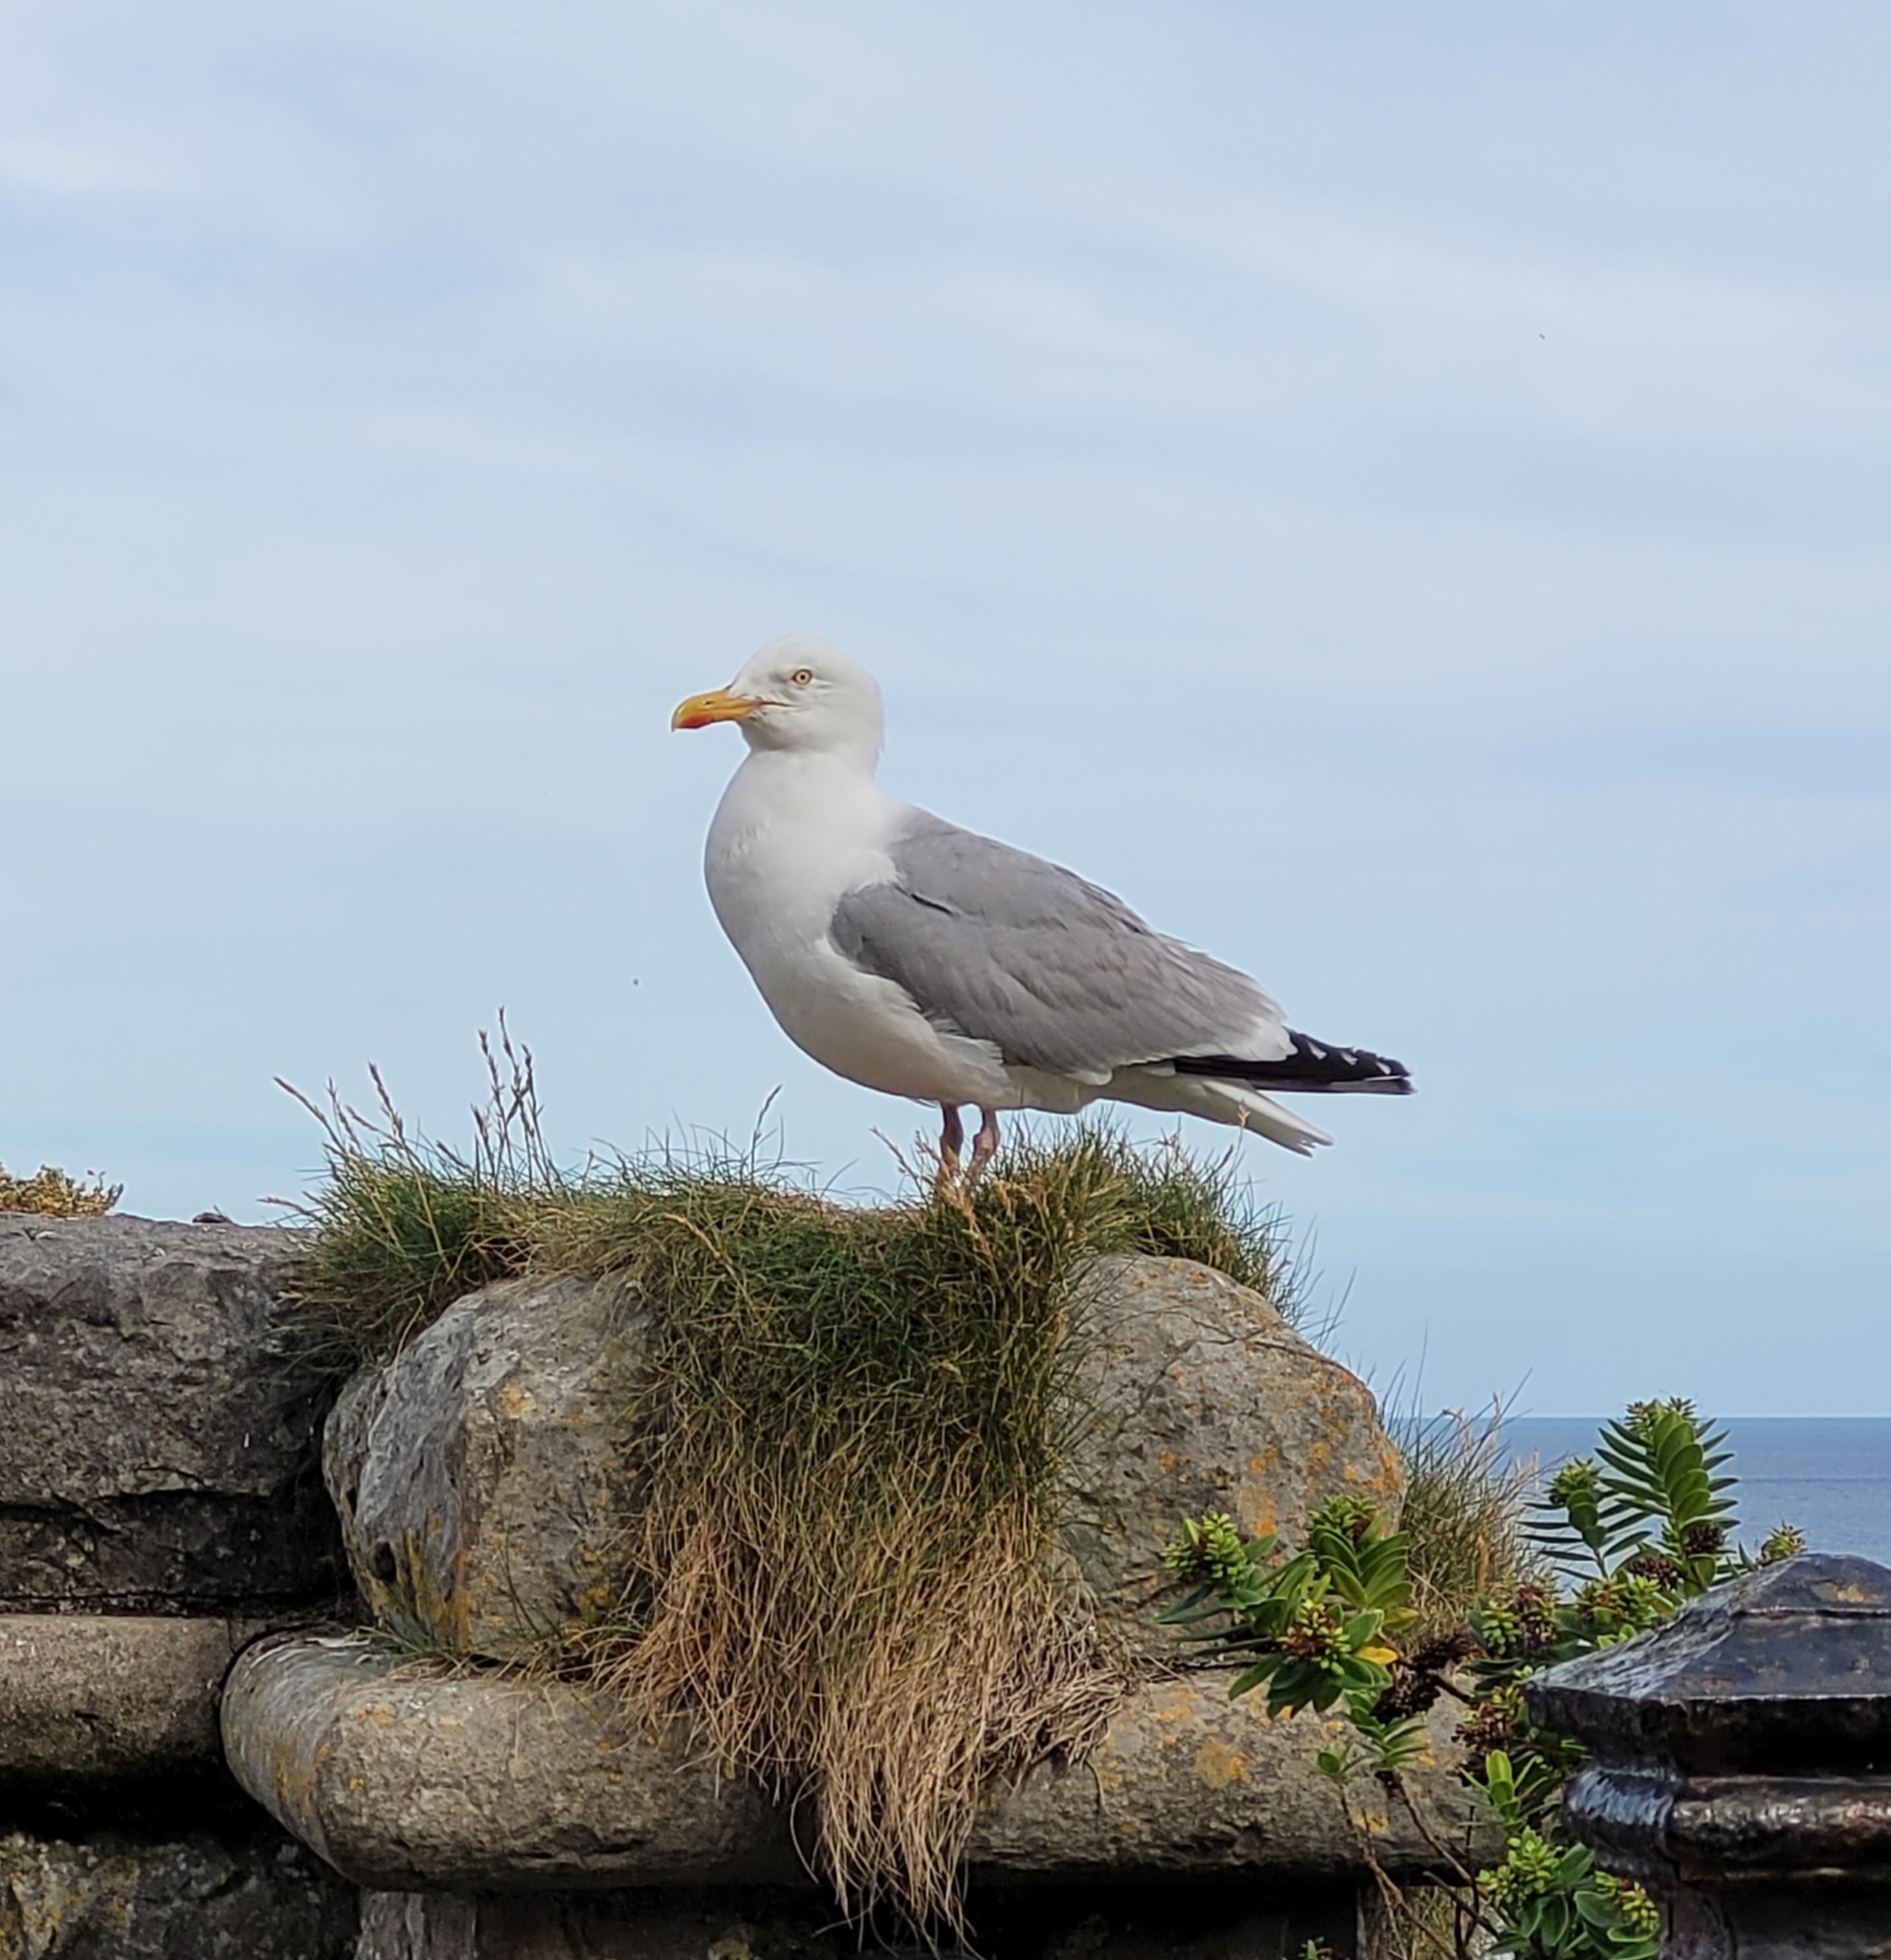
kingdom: Animalia
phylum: Chordata
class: Aves
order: Charadriiformes
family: Laridae
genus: Larus
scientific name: Larus argentatus
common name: Herring gull
